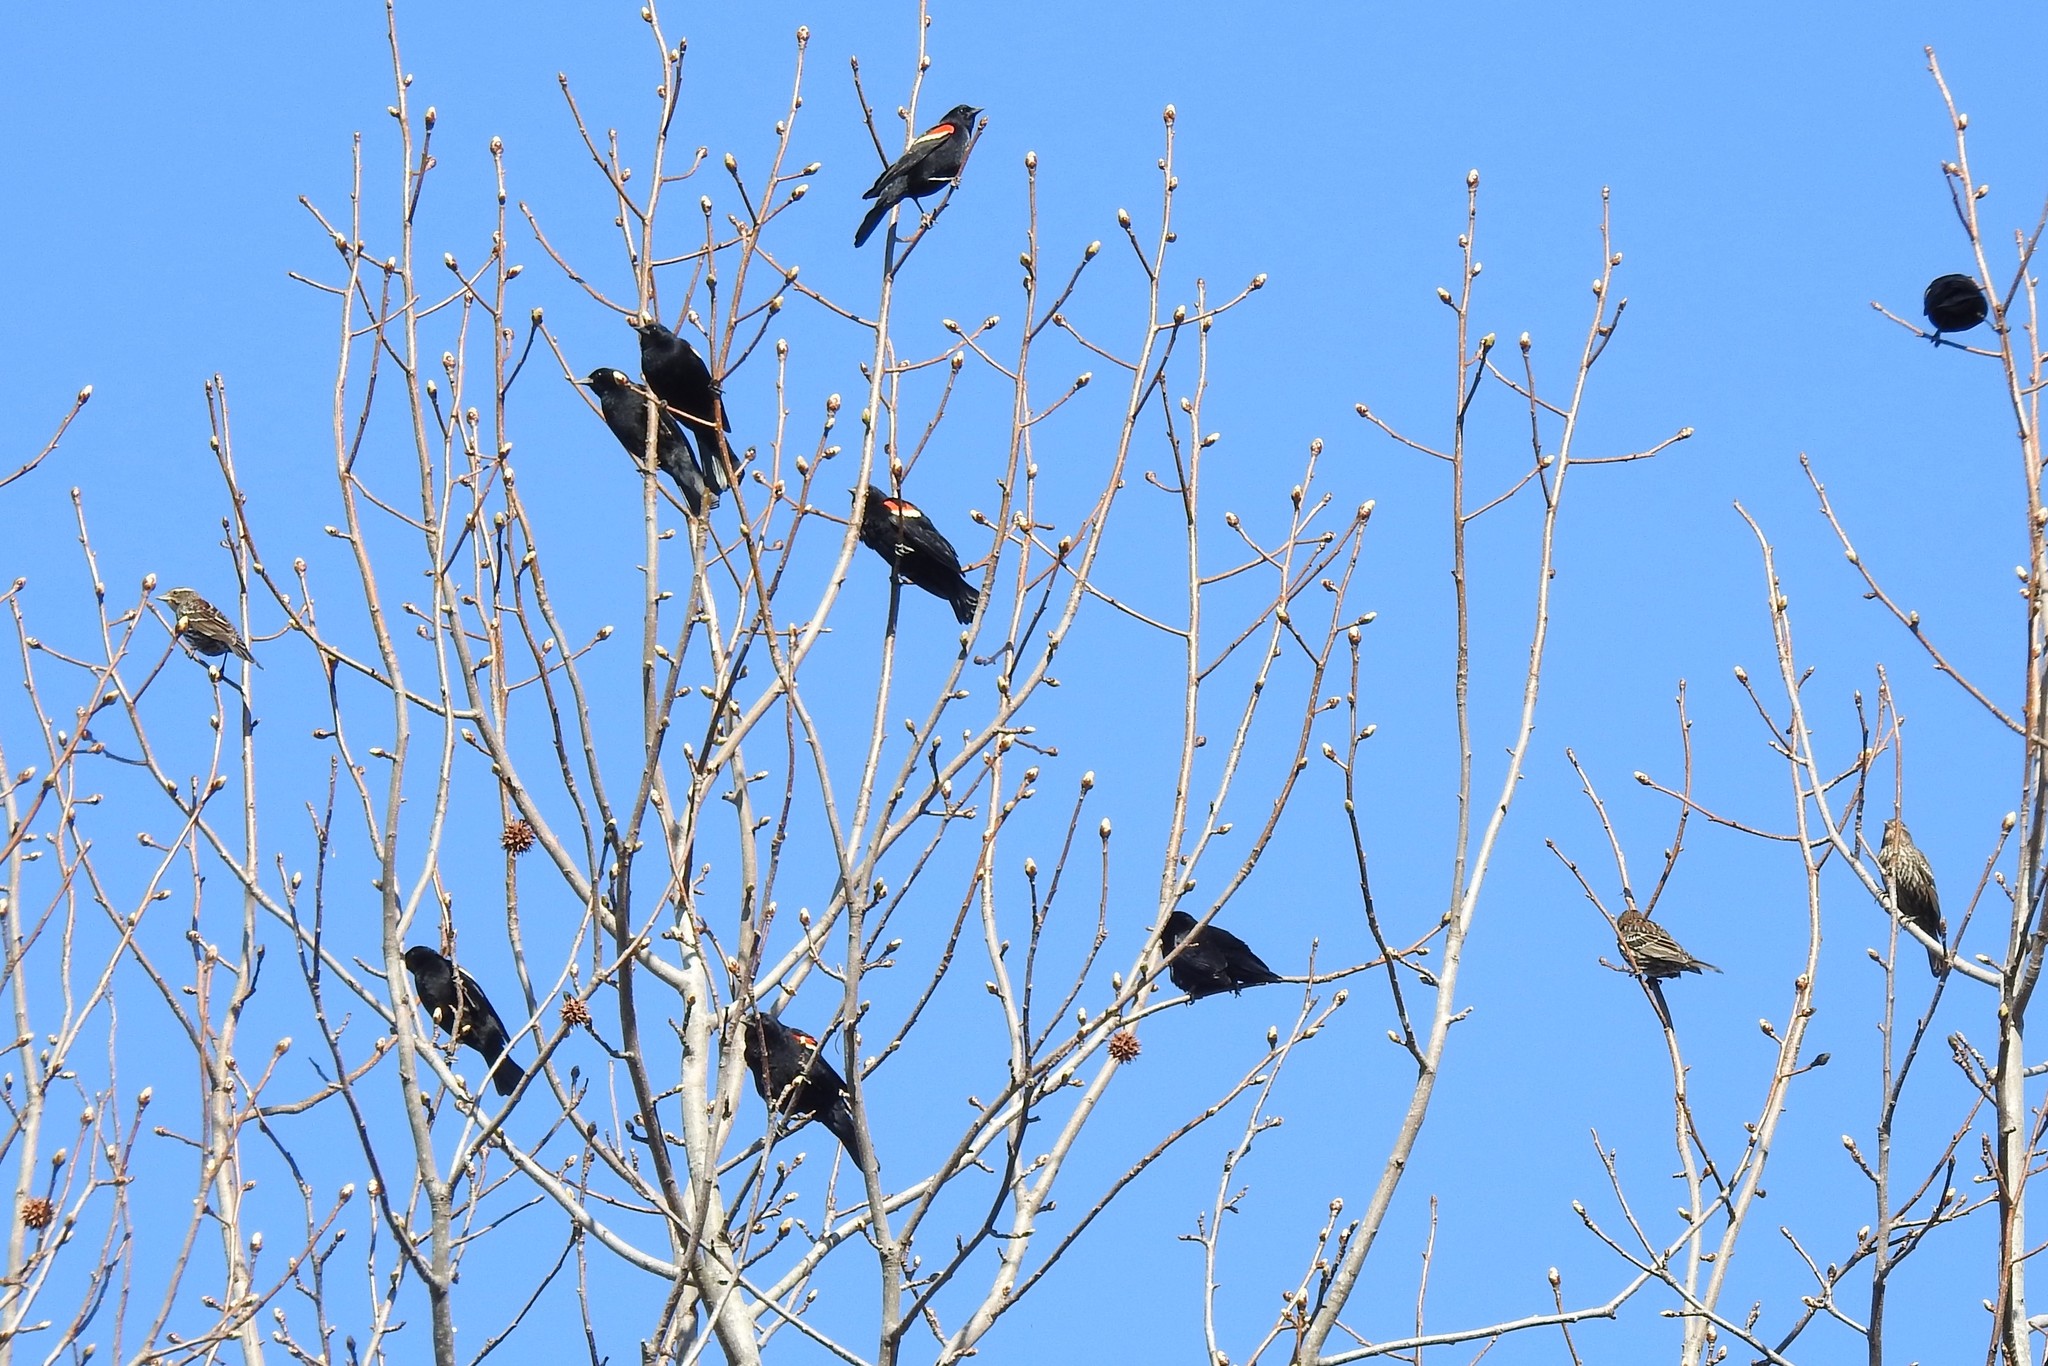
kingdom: Animalia
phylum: Chordata
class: Aves
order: Passeriformes
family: Icteridae
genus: Agelaius
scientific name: Agelaius phoeniceus
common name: Red-winged blackbird
